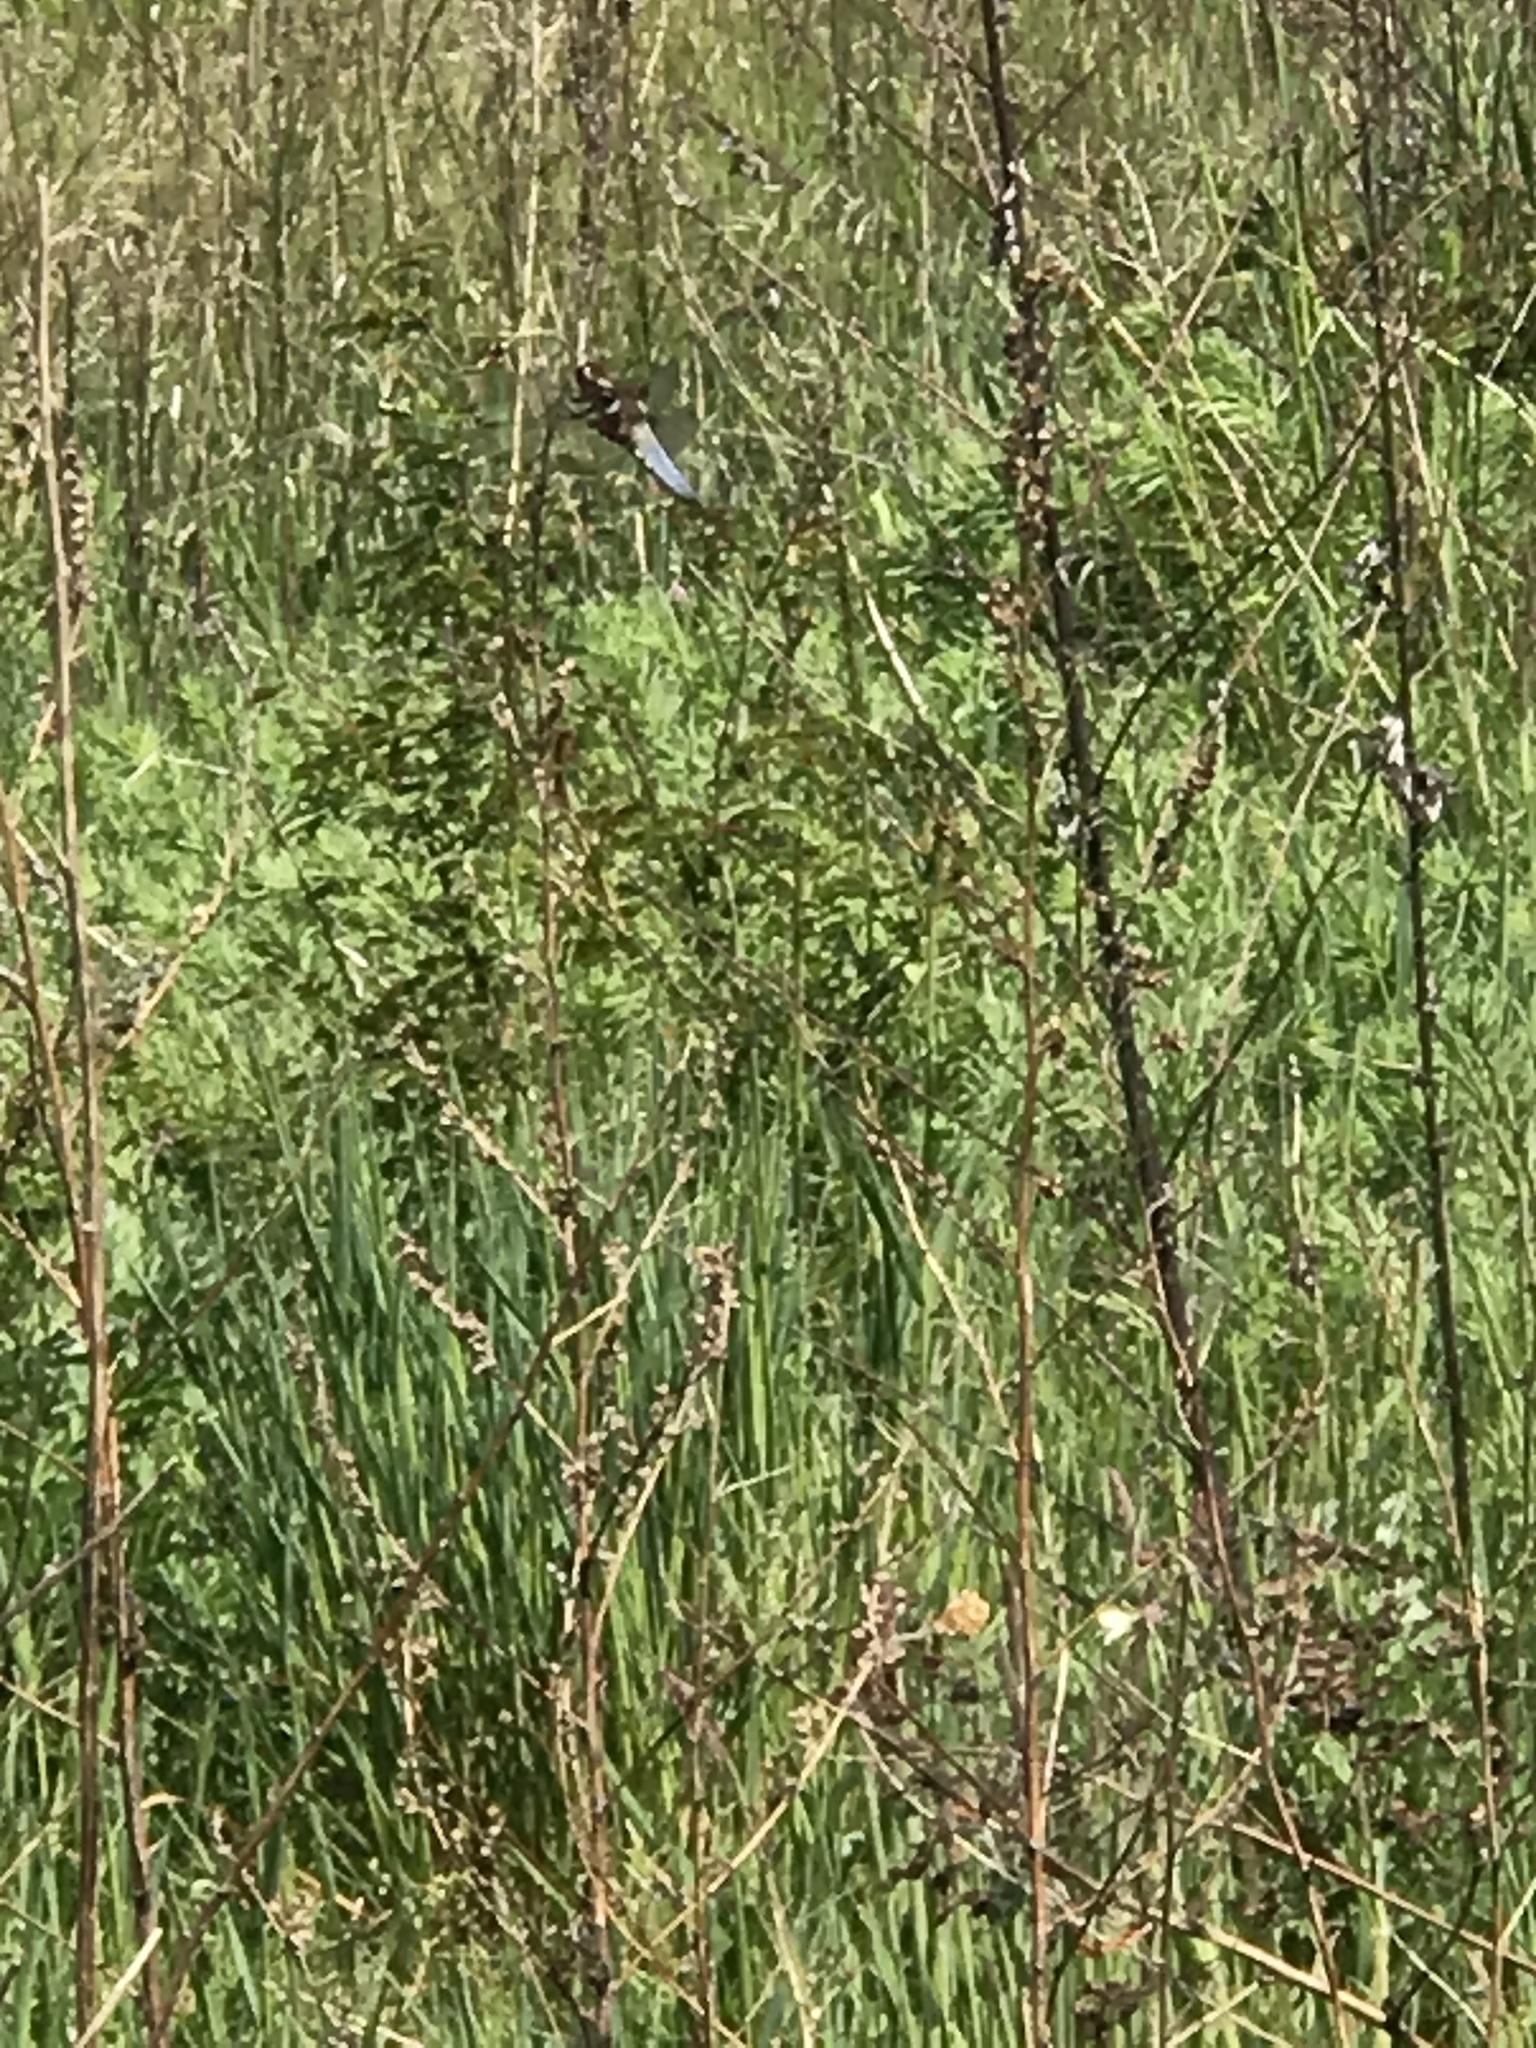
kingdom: Animalia
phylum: Arthropoda
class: Insecta
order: Odonata
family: Libellulidae
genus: Libellula
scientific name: Libellula depressa
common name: Broad-bodied chaser
